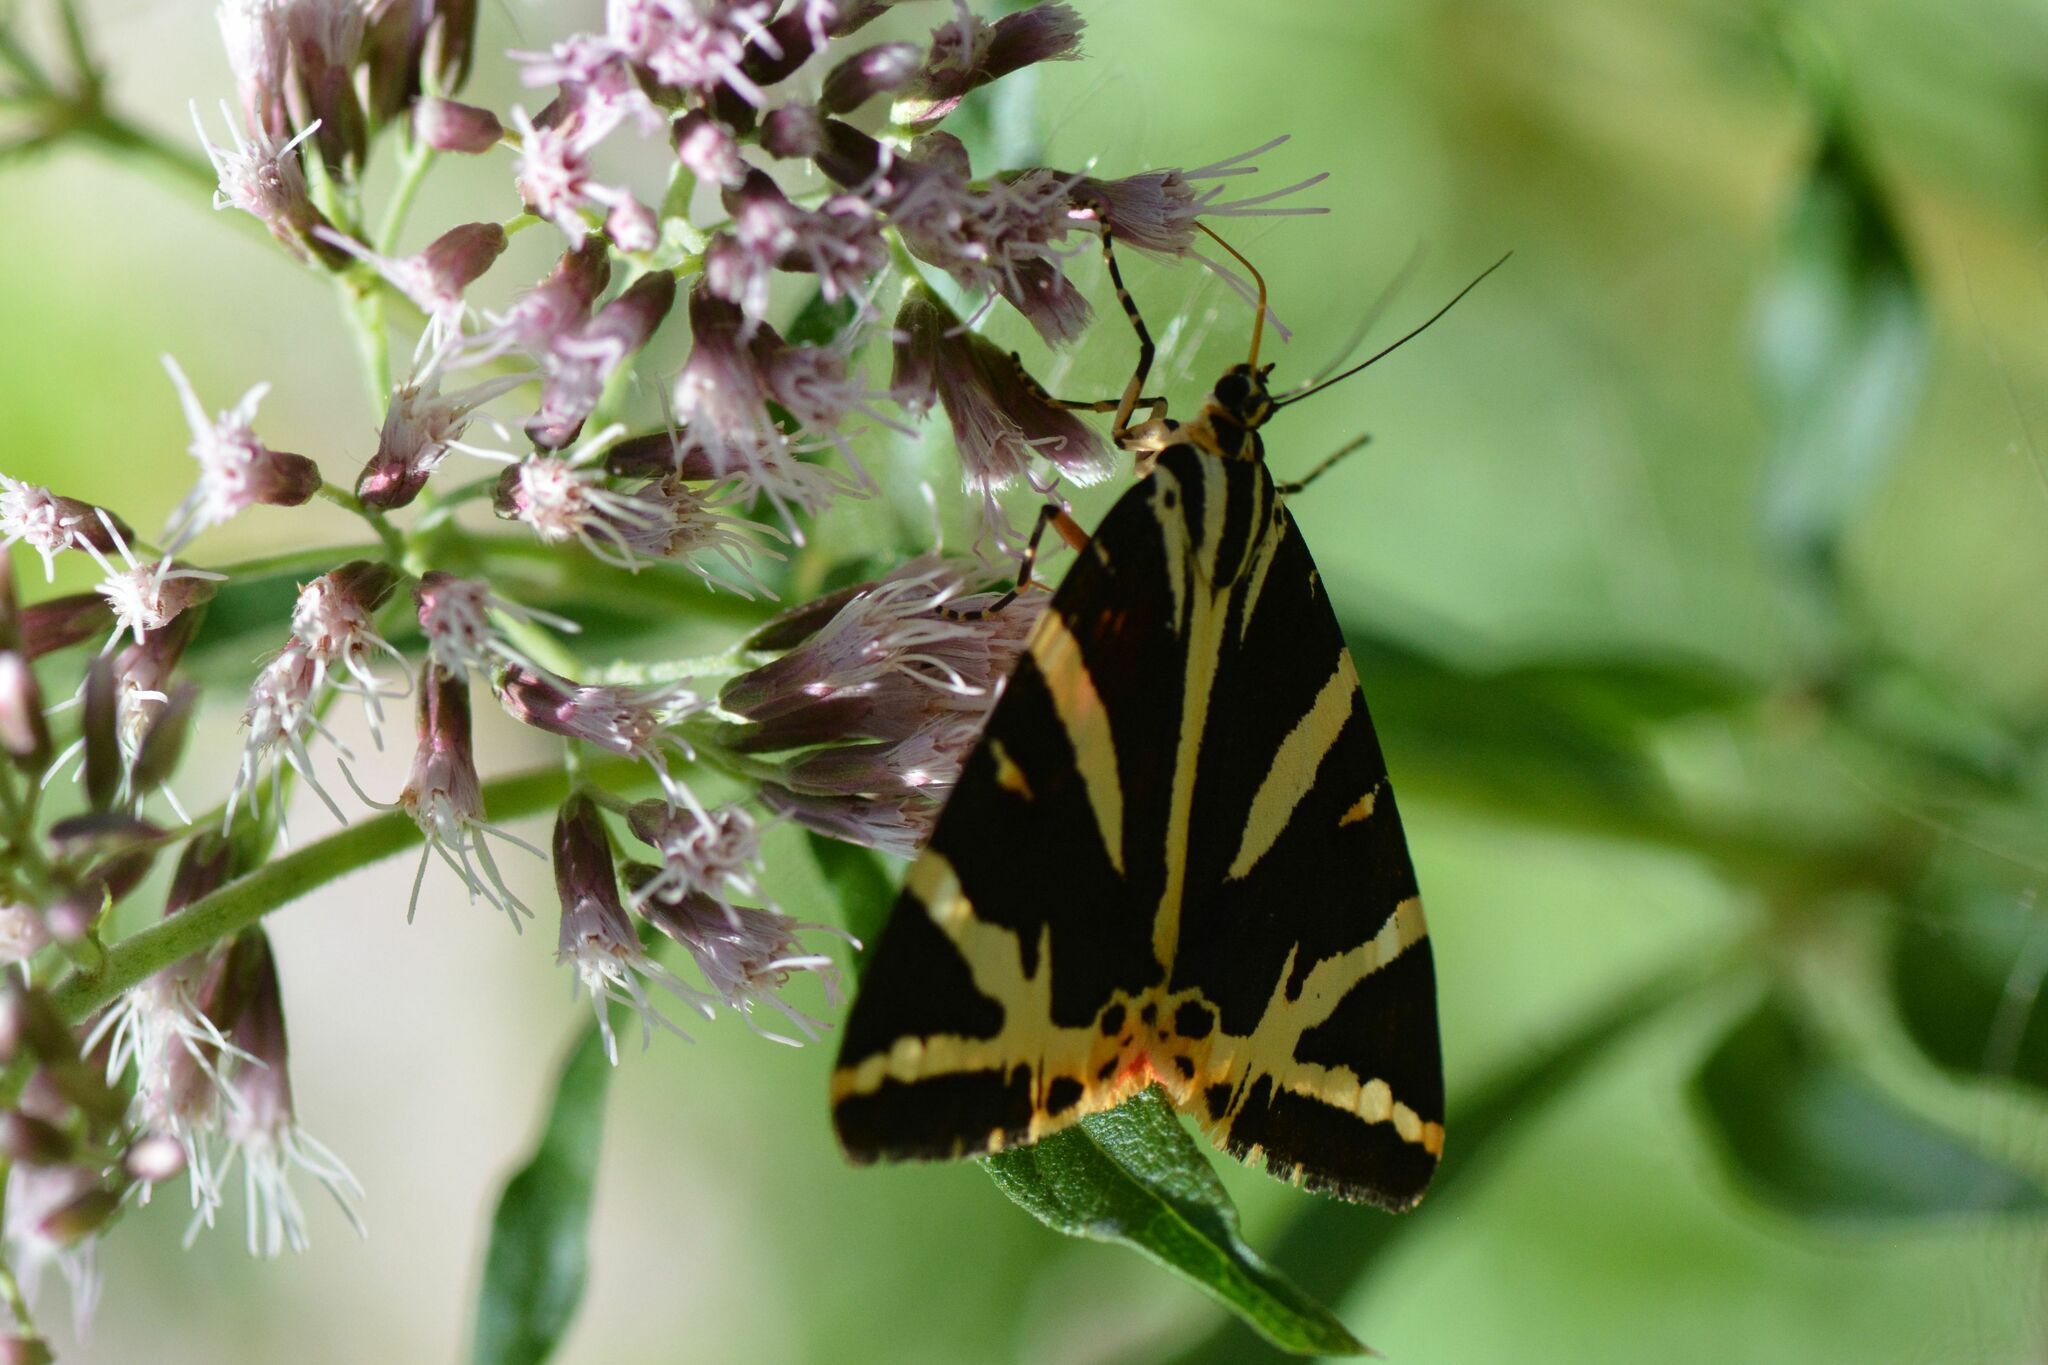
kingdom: Animalia
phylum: Arthropoda
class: Insecta
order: Lepidoptera
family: Erebidae
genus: Euplagia
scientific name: Euplagia quadripunctaria
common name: Jersey tiger
